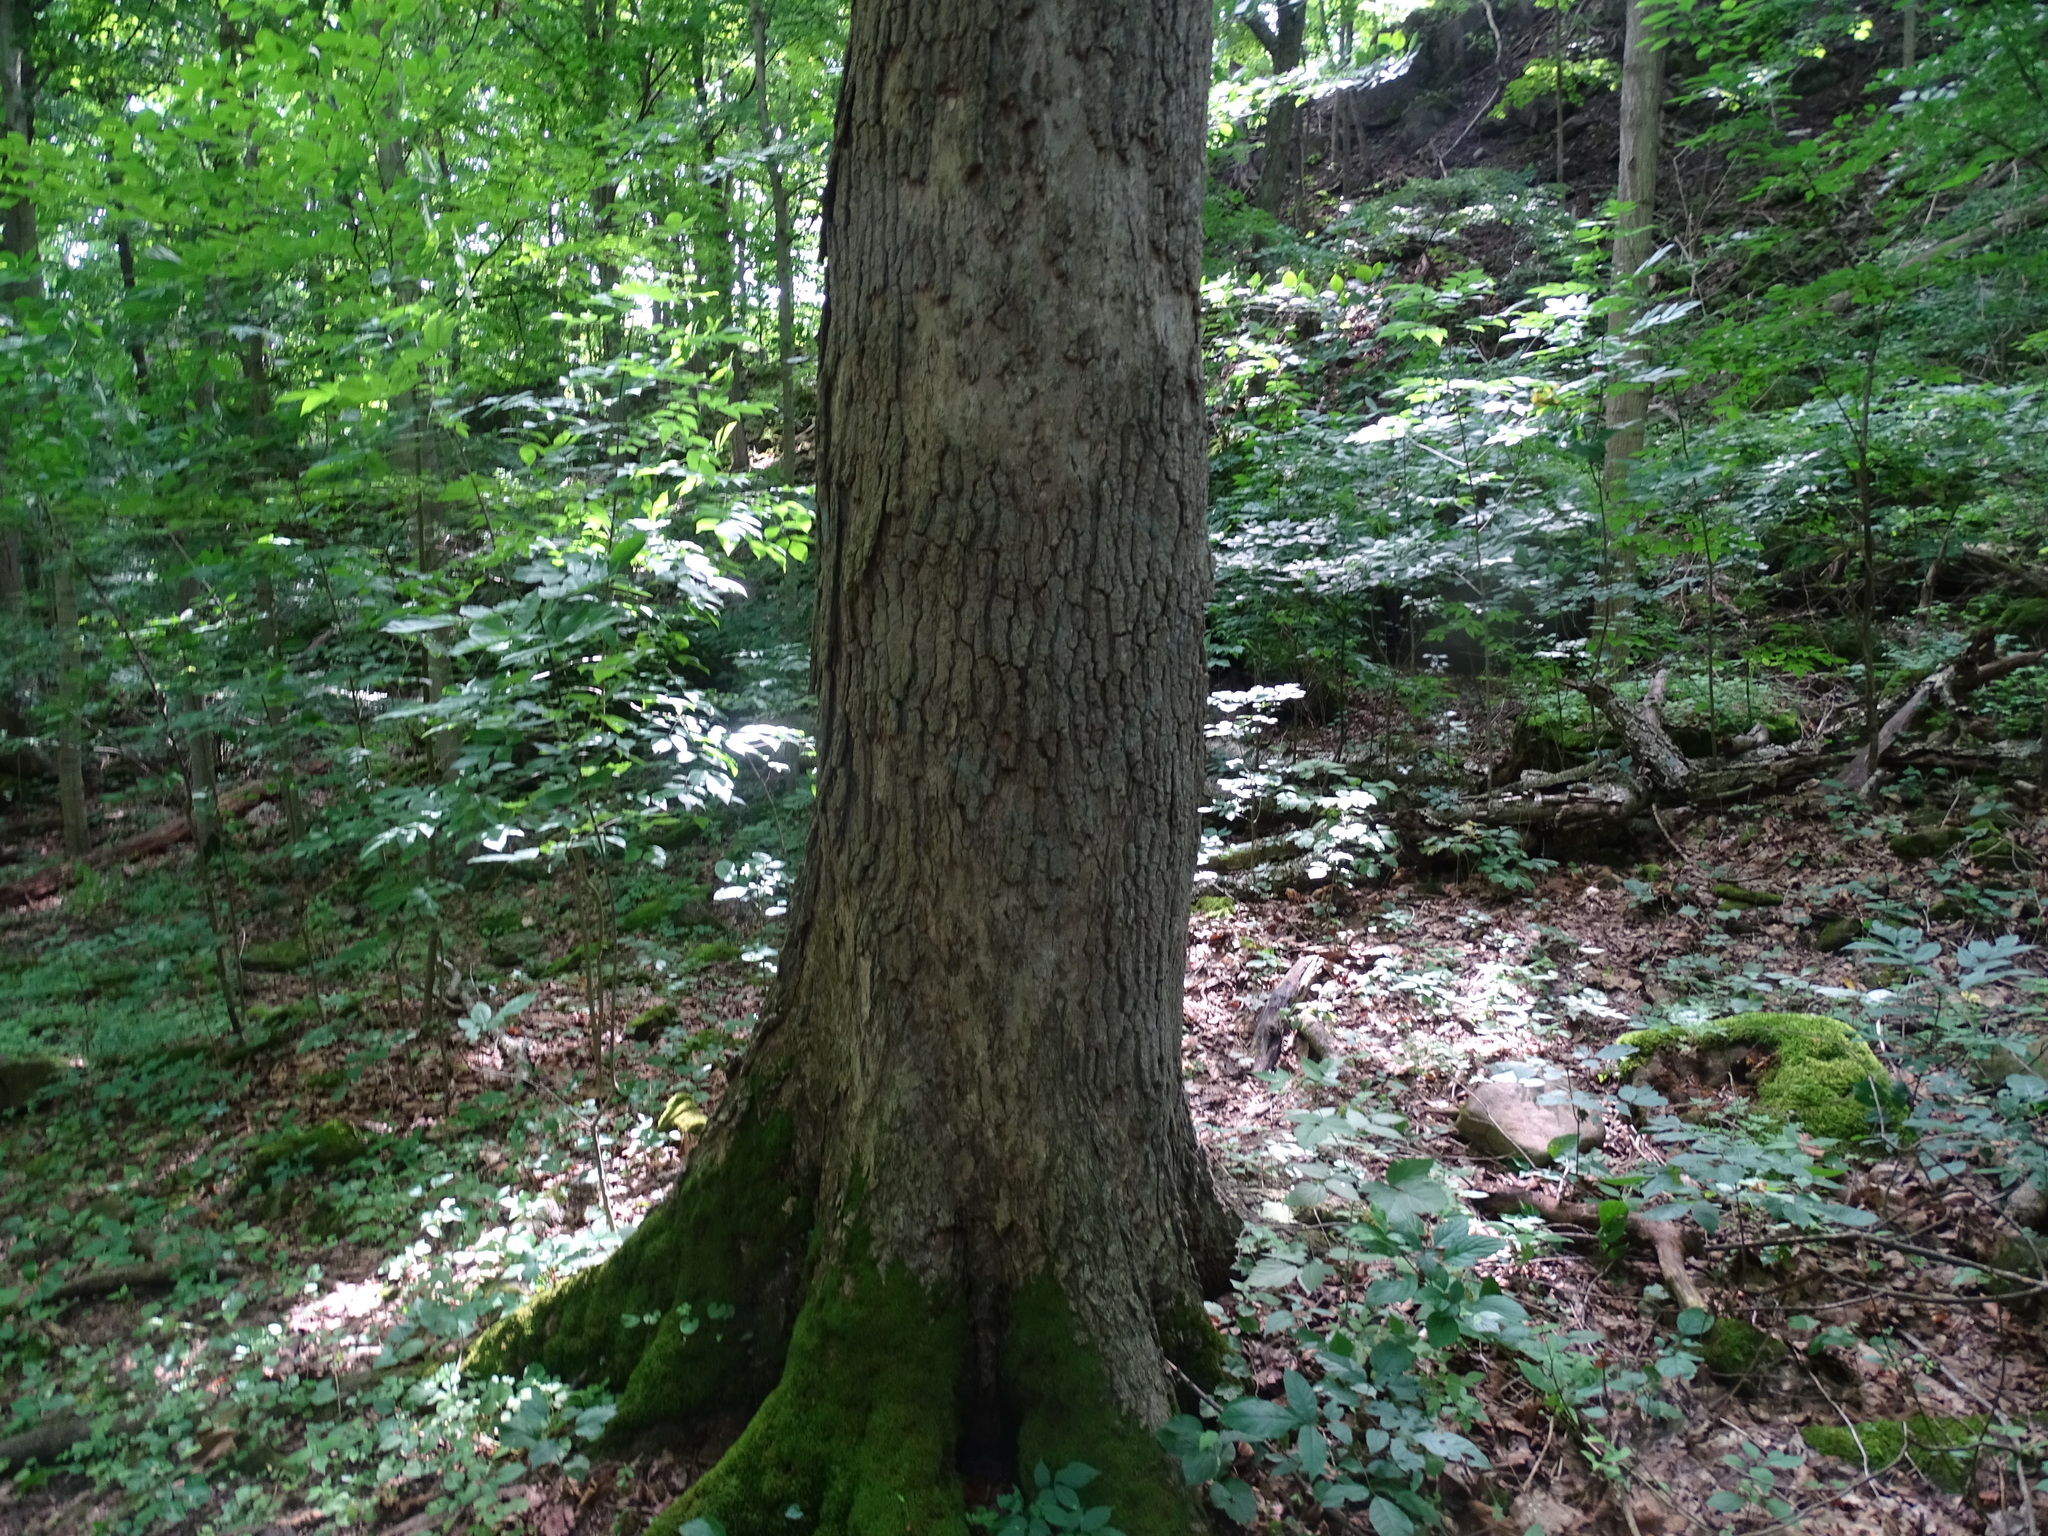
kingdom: Plantae
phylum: Tracheophyta
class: Magnoliopsida
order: Sapindales
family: Sapindaceae
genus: Acer
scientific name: Acer nigrum
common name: Black maple
